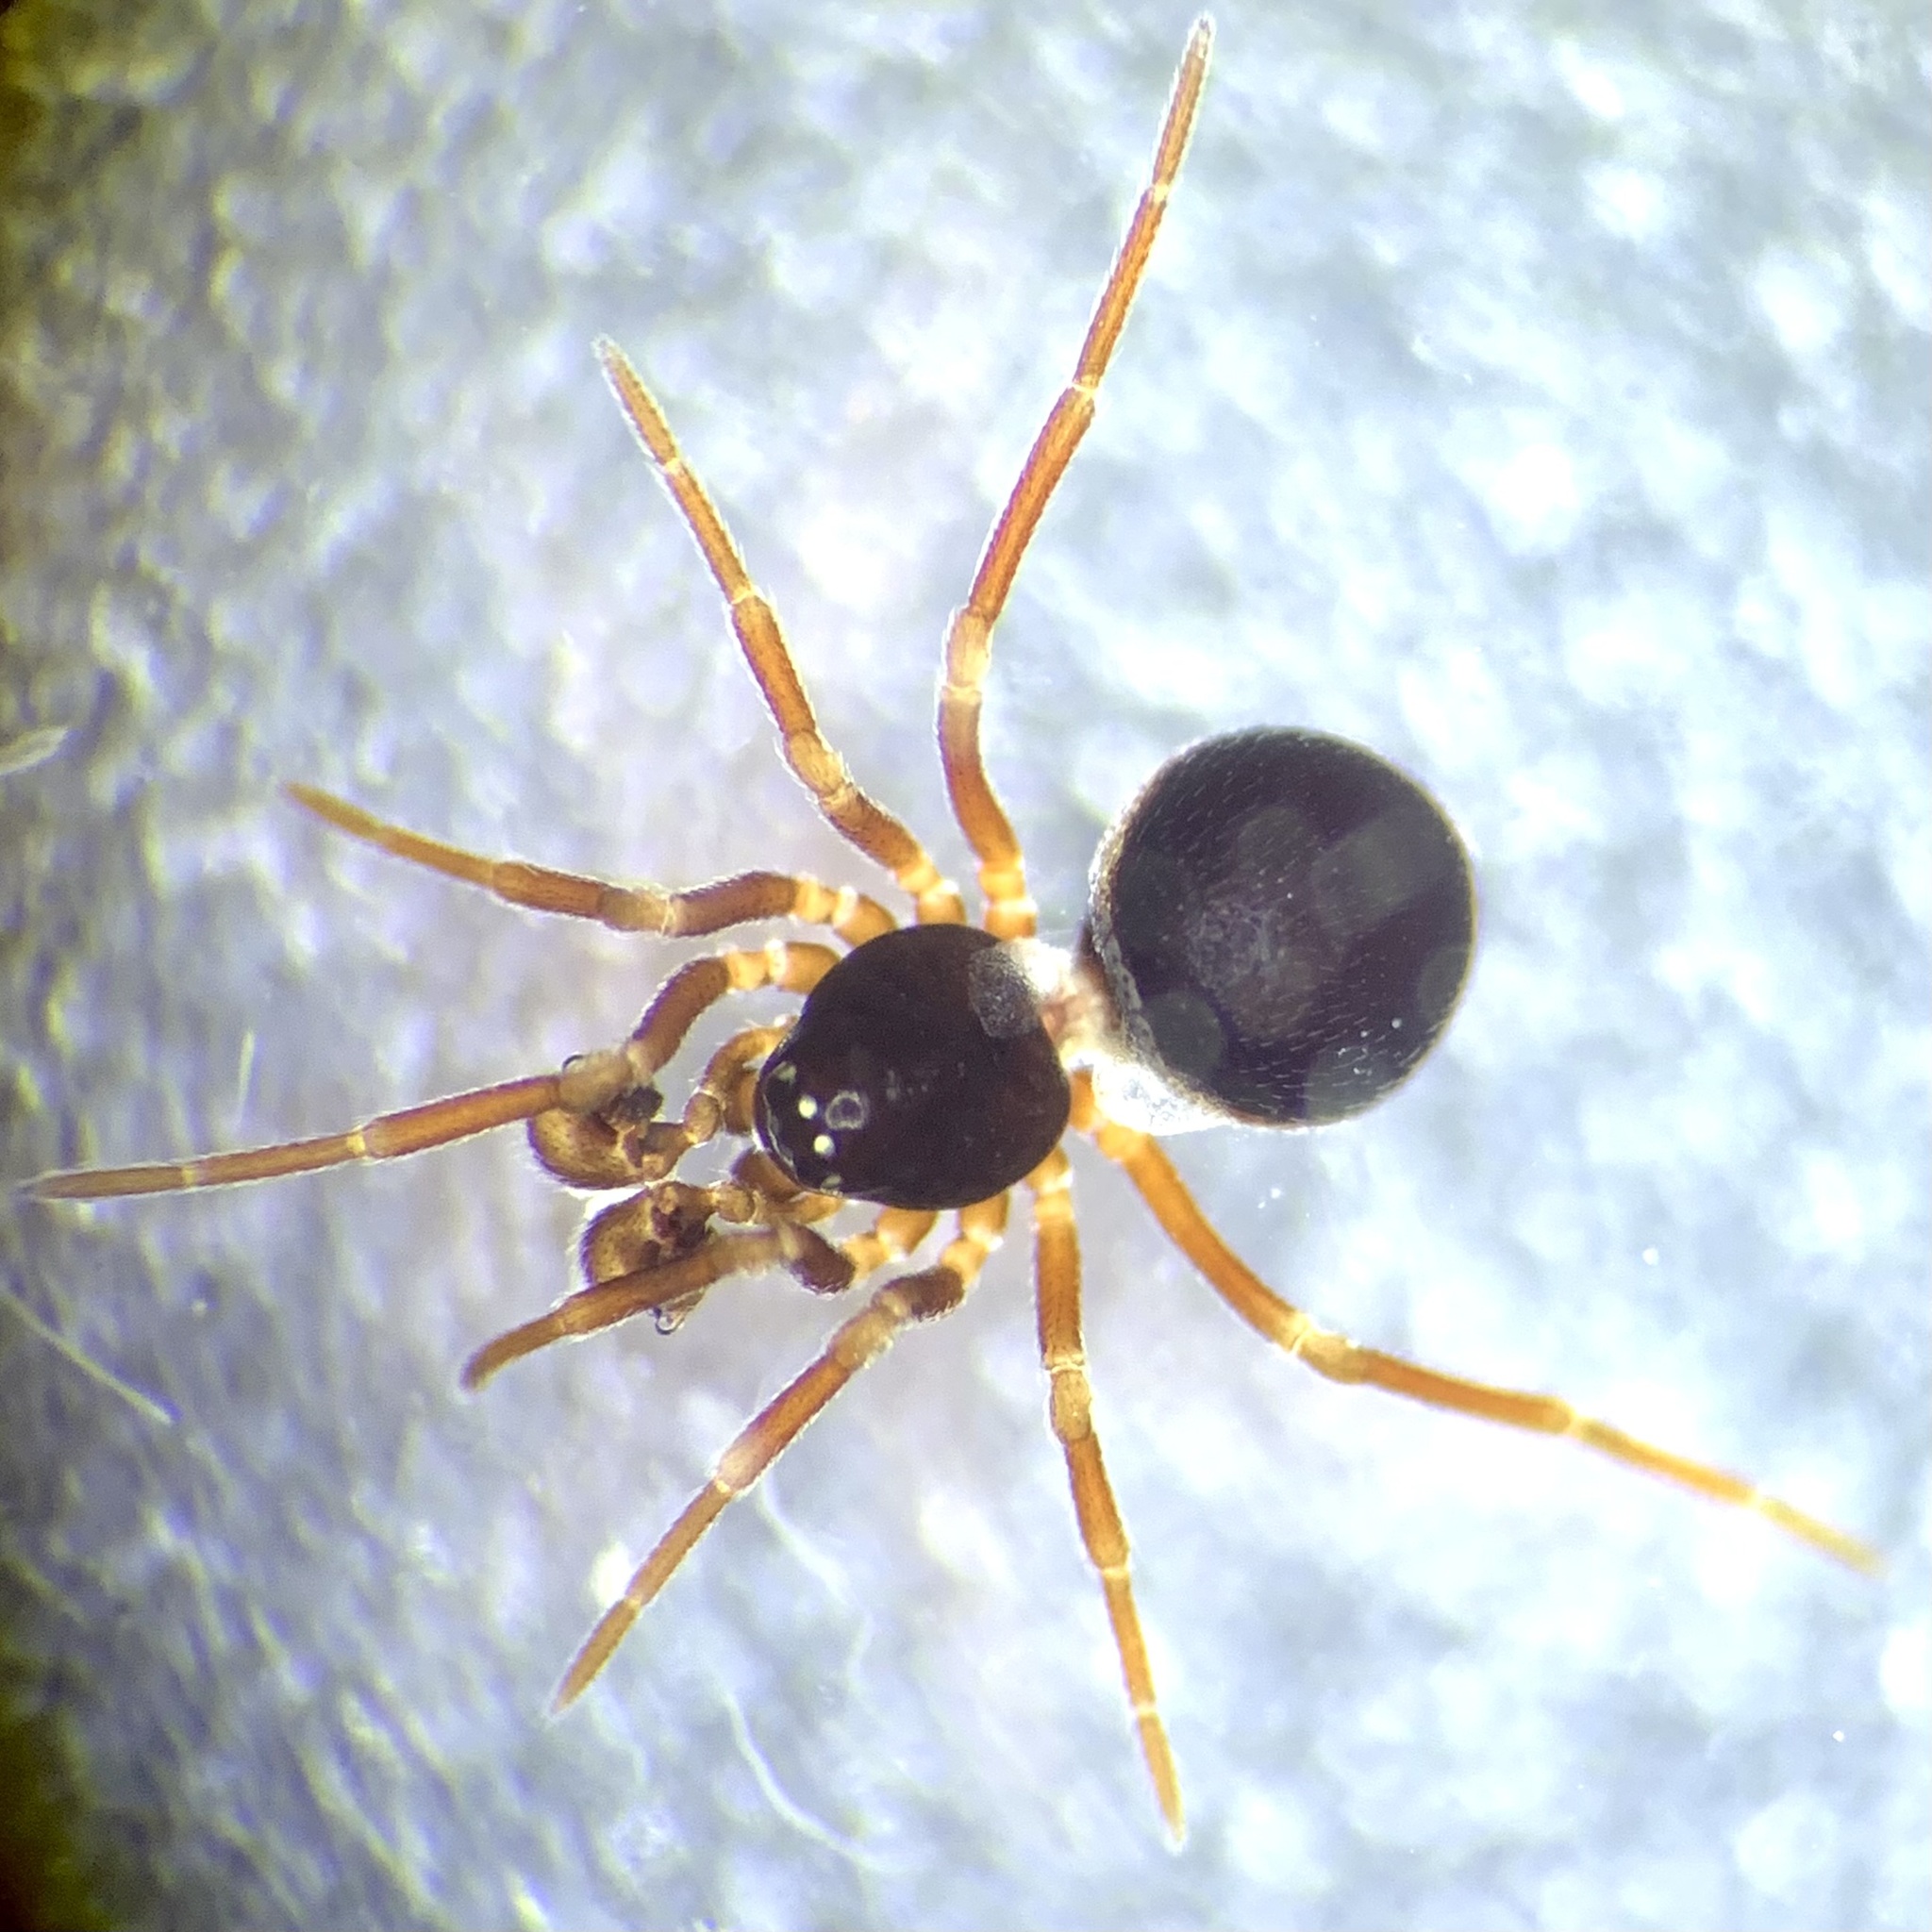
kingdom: Animalia
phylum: Arthropoda
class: Arachnida
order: Araneae
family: Linyphiidae
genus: Ceratinella
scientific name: Ceratinella brevis
